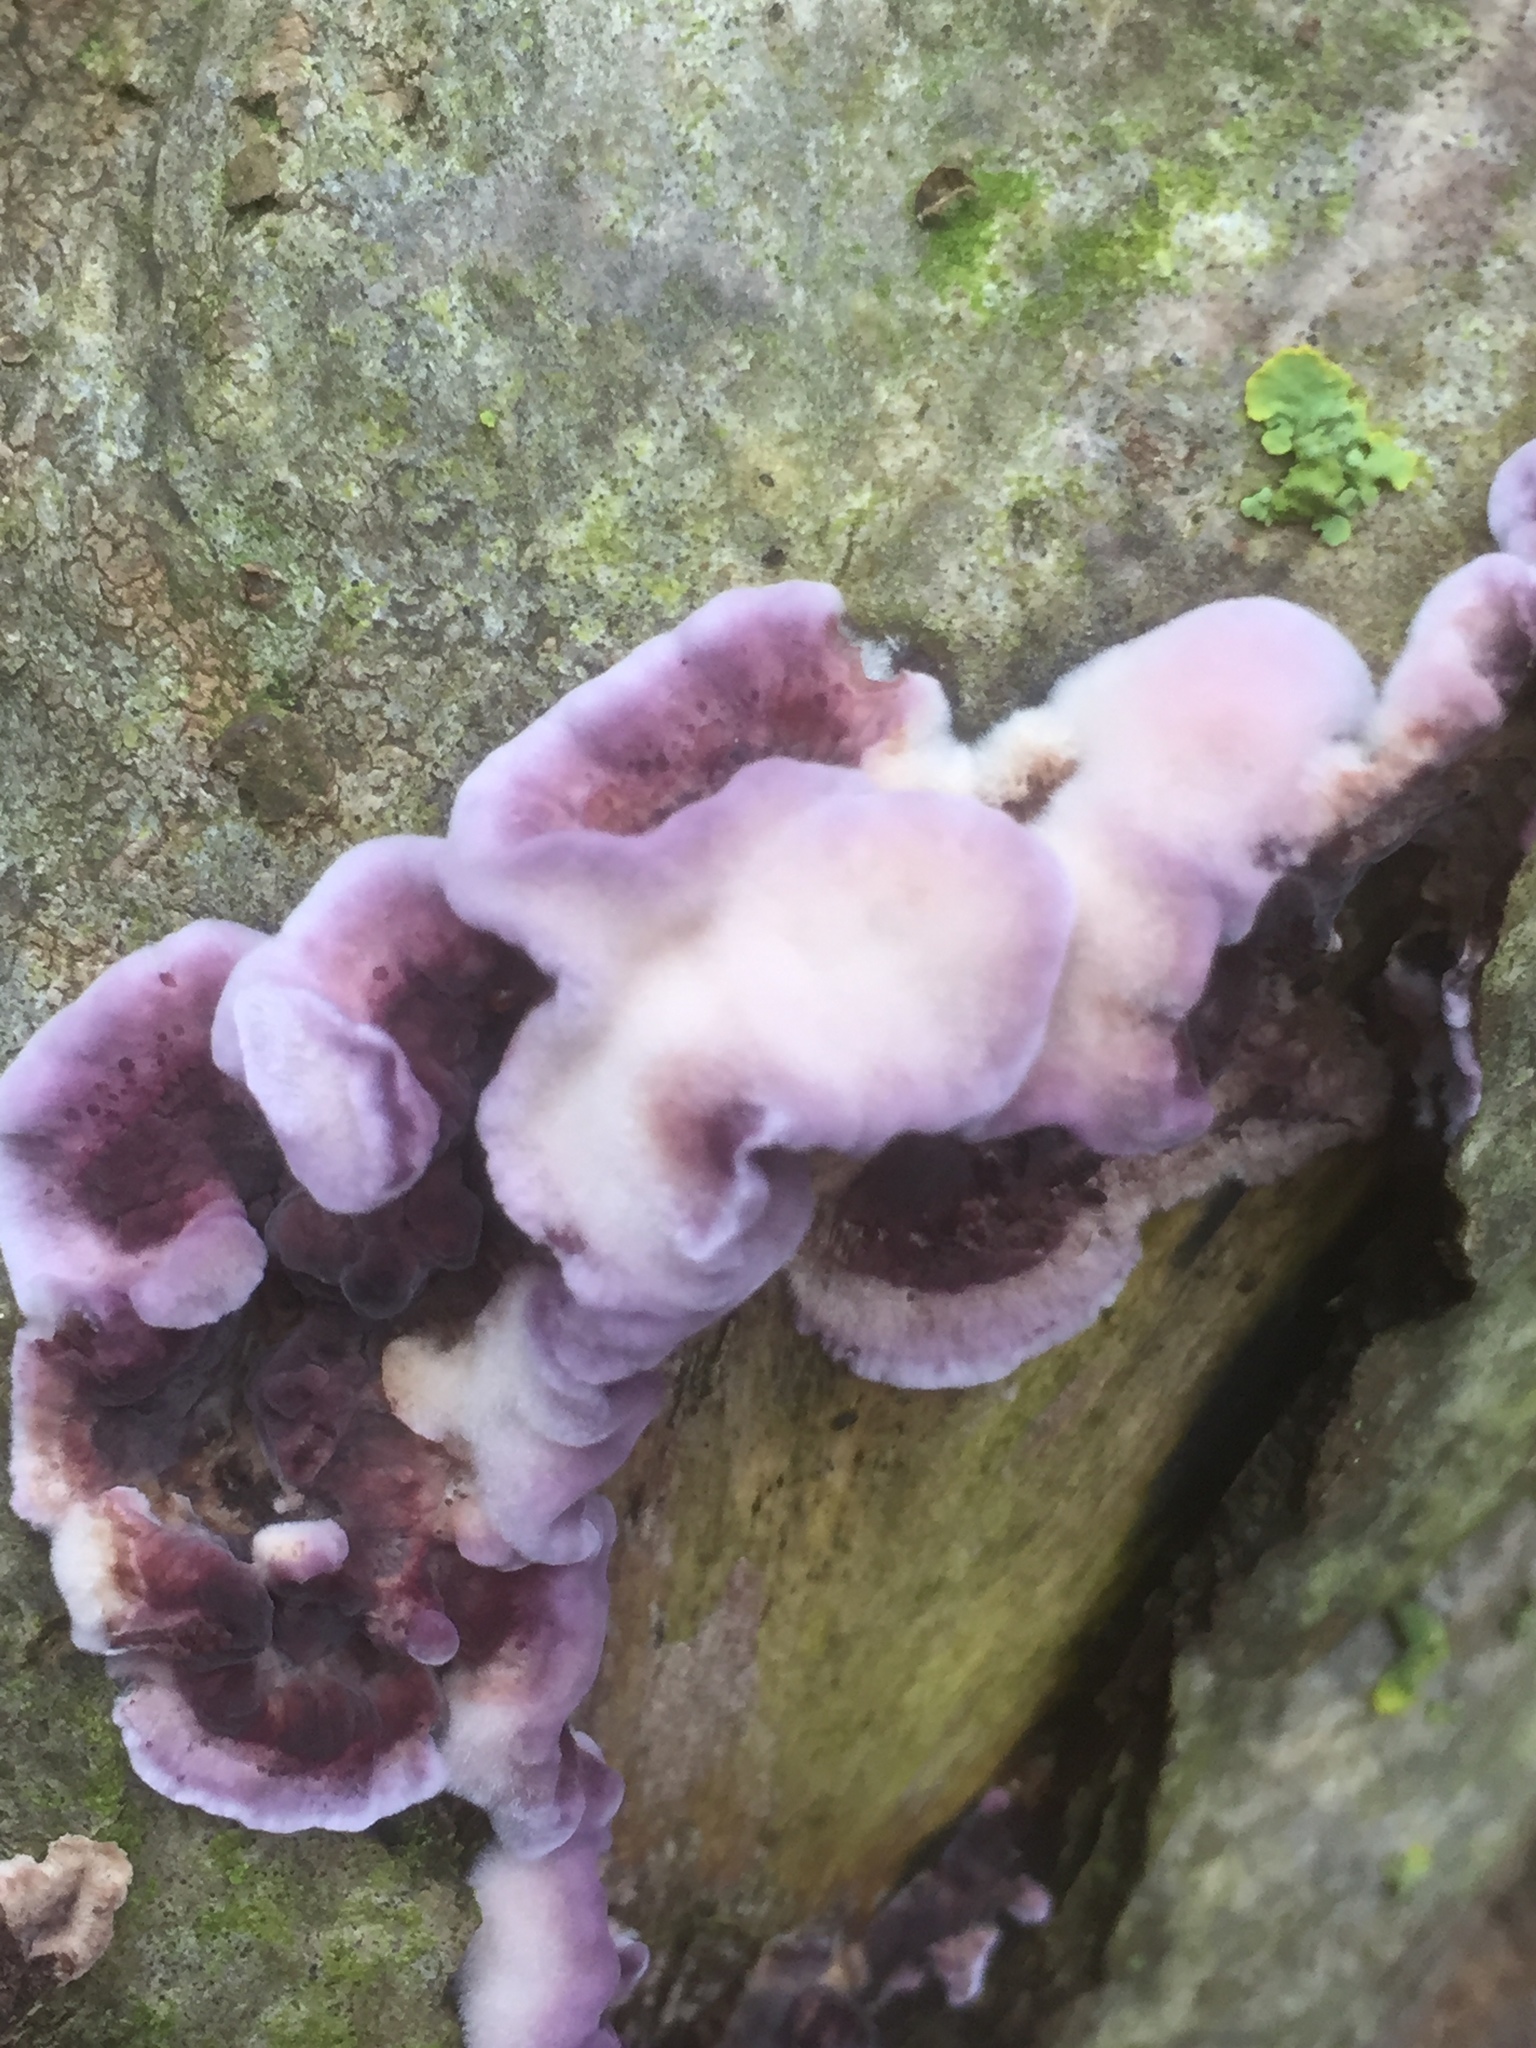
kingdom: Fungi
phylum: Basidiomycota
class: Agaricomycetes
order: Agaricales
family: Cyphellaceae
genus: Chondrostereum
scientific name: Chondrostereum purpureum
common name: Silver leaf disease
